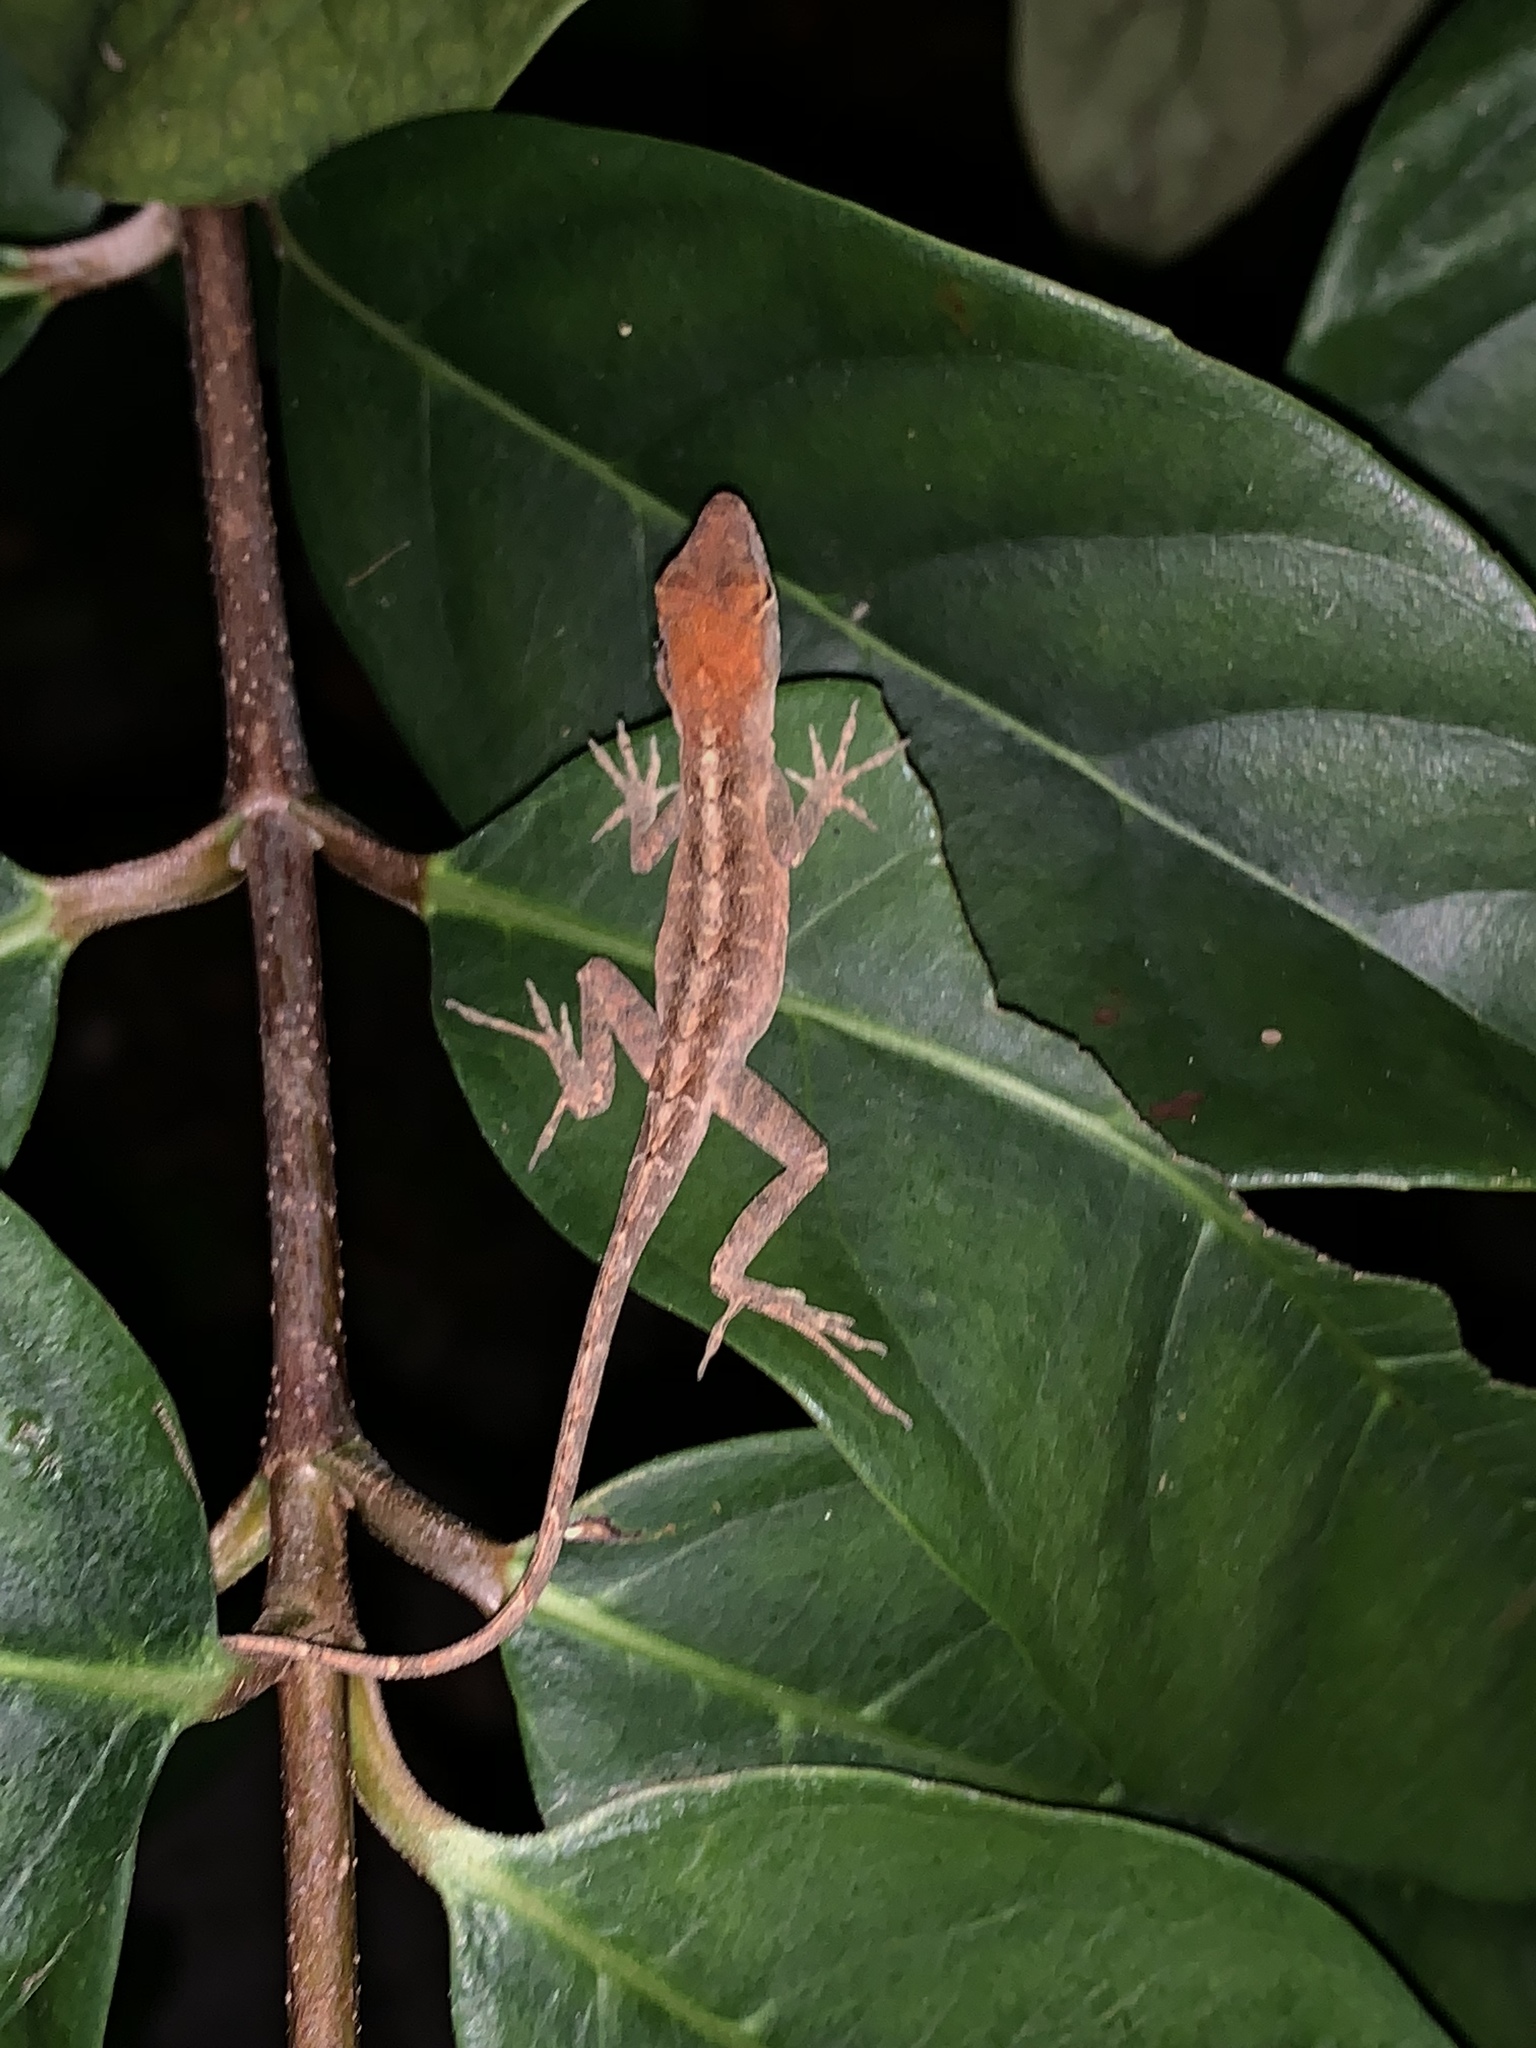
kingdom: Animalia
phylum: Chordata
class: Squamata
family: Dactyloidae
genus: Anolis
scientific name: Anolis sagrei
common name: Brown anole
